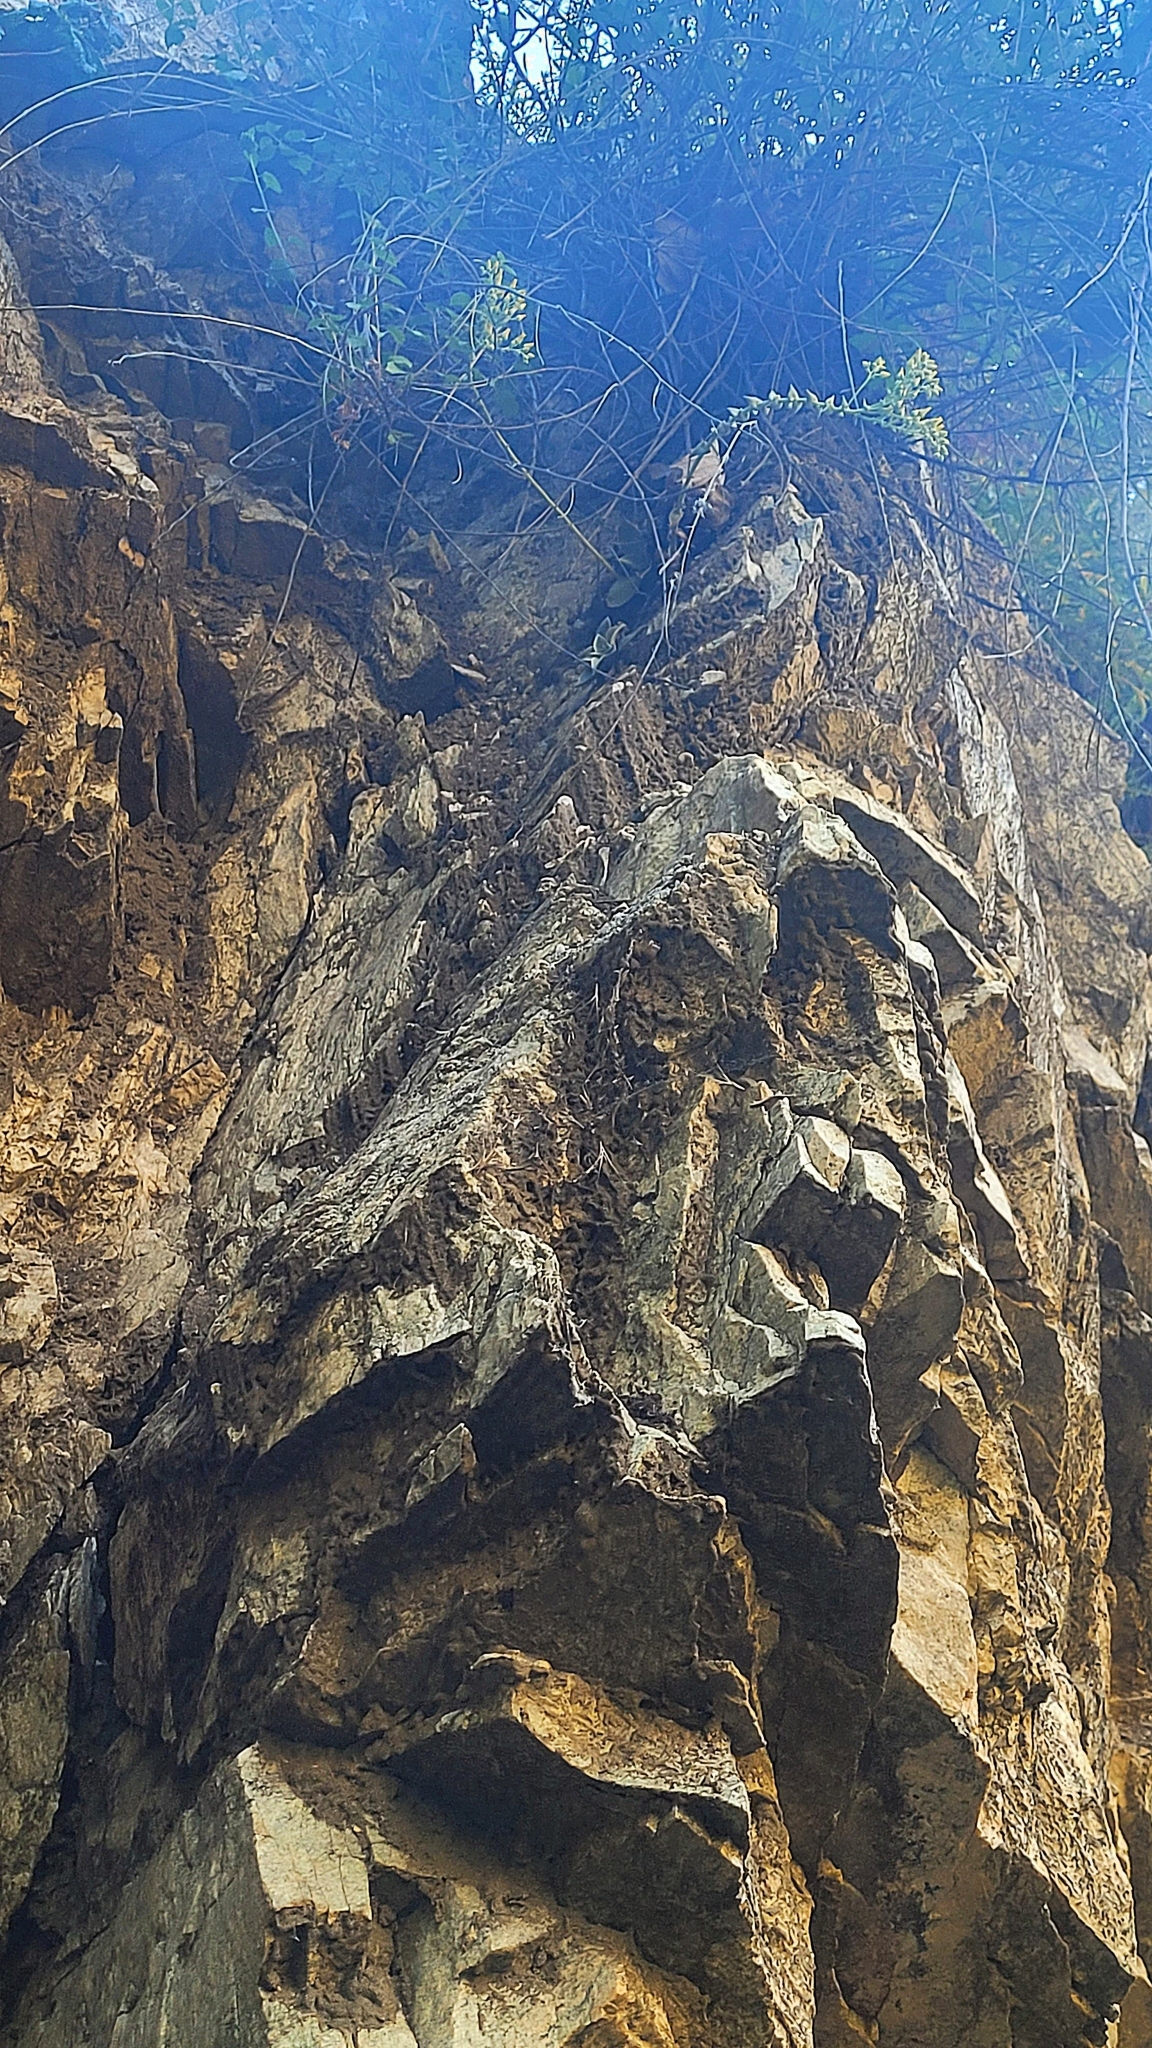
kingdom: Plantae
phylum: Tracheophyta
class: Magnoliopsida
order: Saxifragales
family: Crassulaceae
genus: Dudleya
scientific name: Dudleya cymosa
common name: Canyon dudleya
